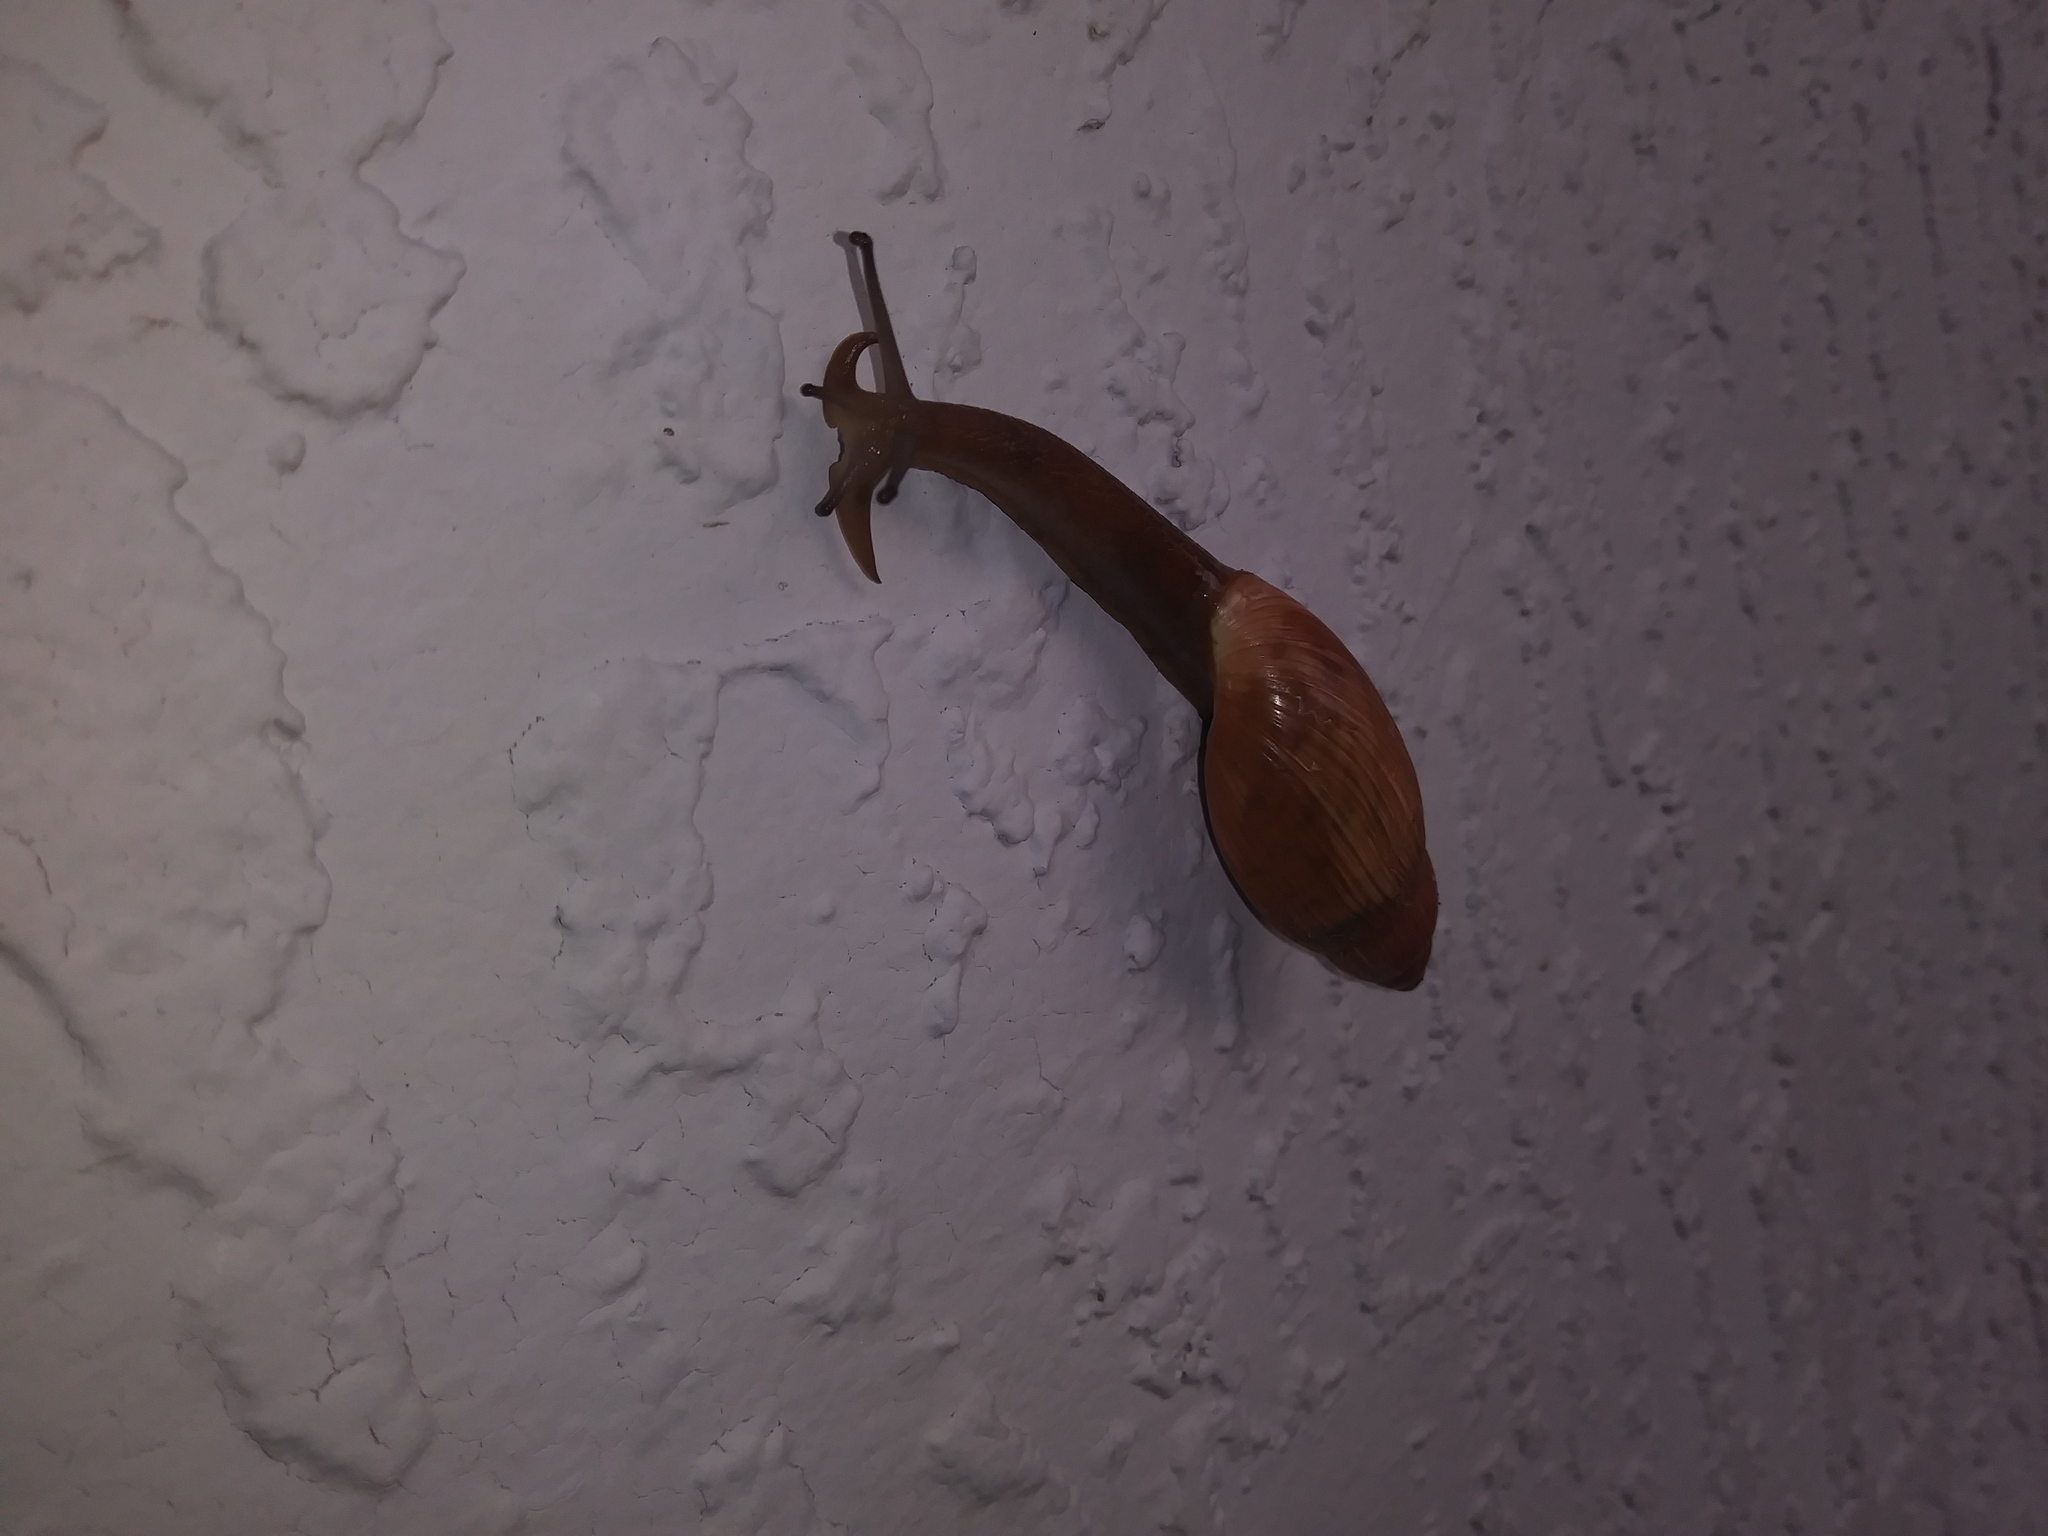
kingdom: Animalia
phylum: Mollusca
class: Gastropoda
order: Stylommatophora
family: Spiraxidae
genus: Euglandina
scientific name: Euglandina rosea
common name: Rosy wolfsnail
